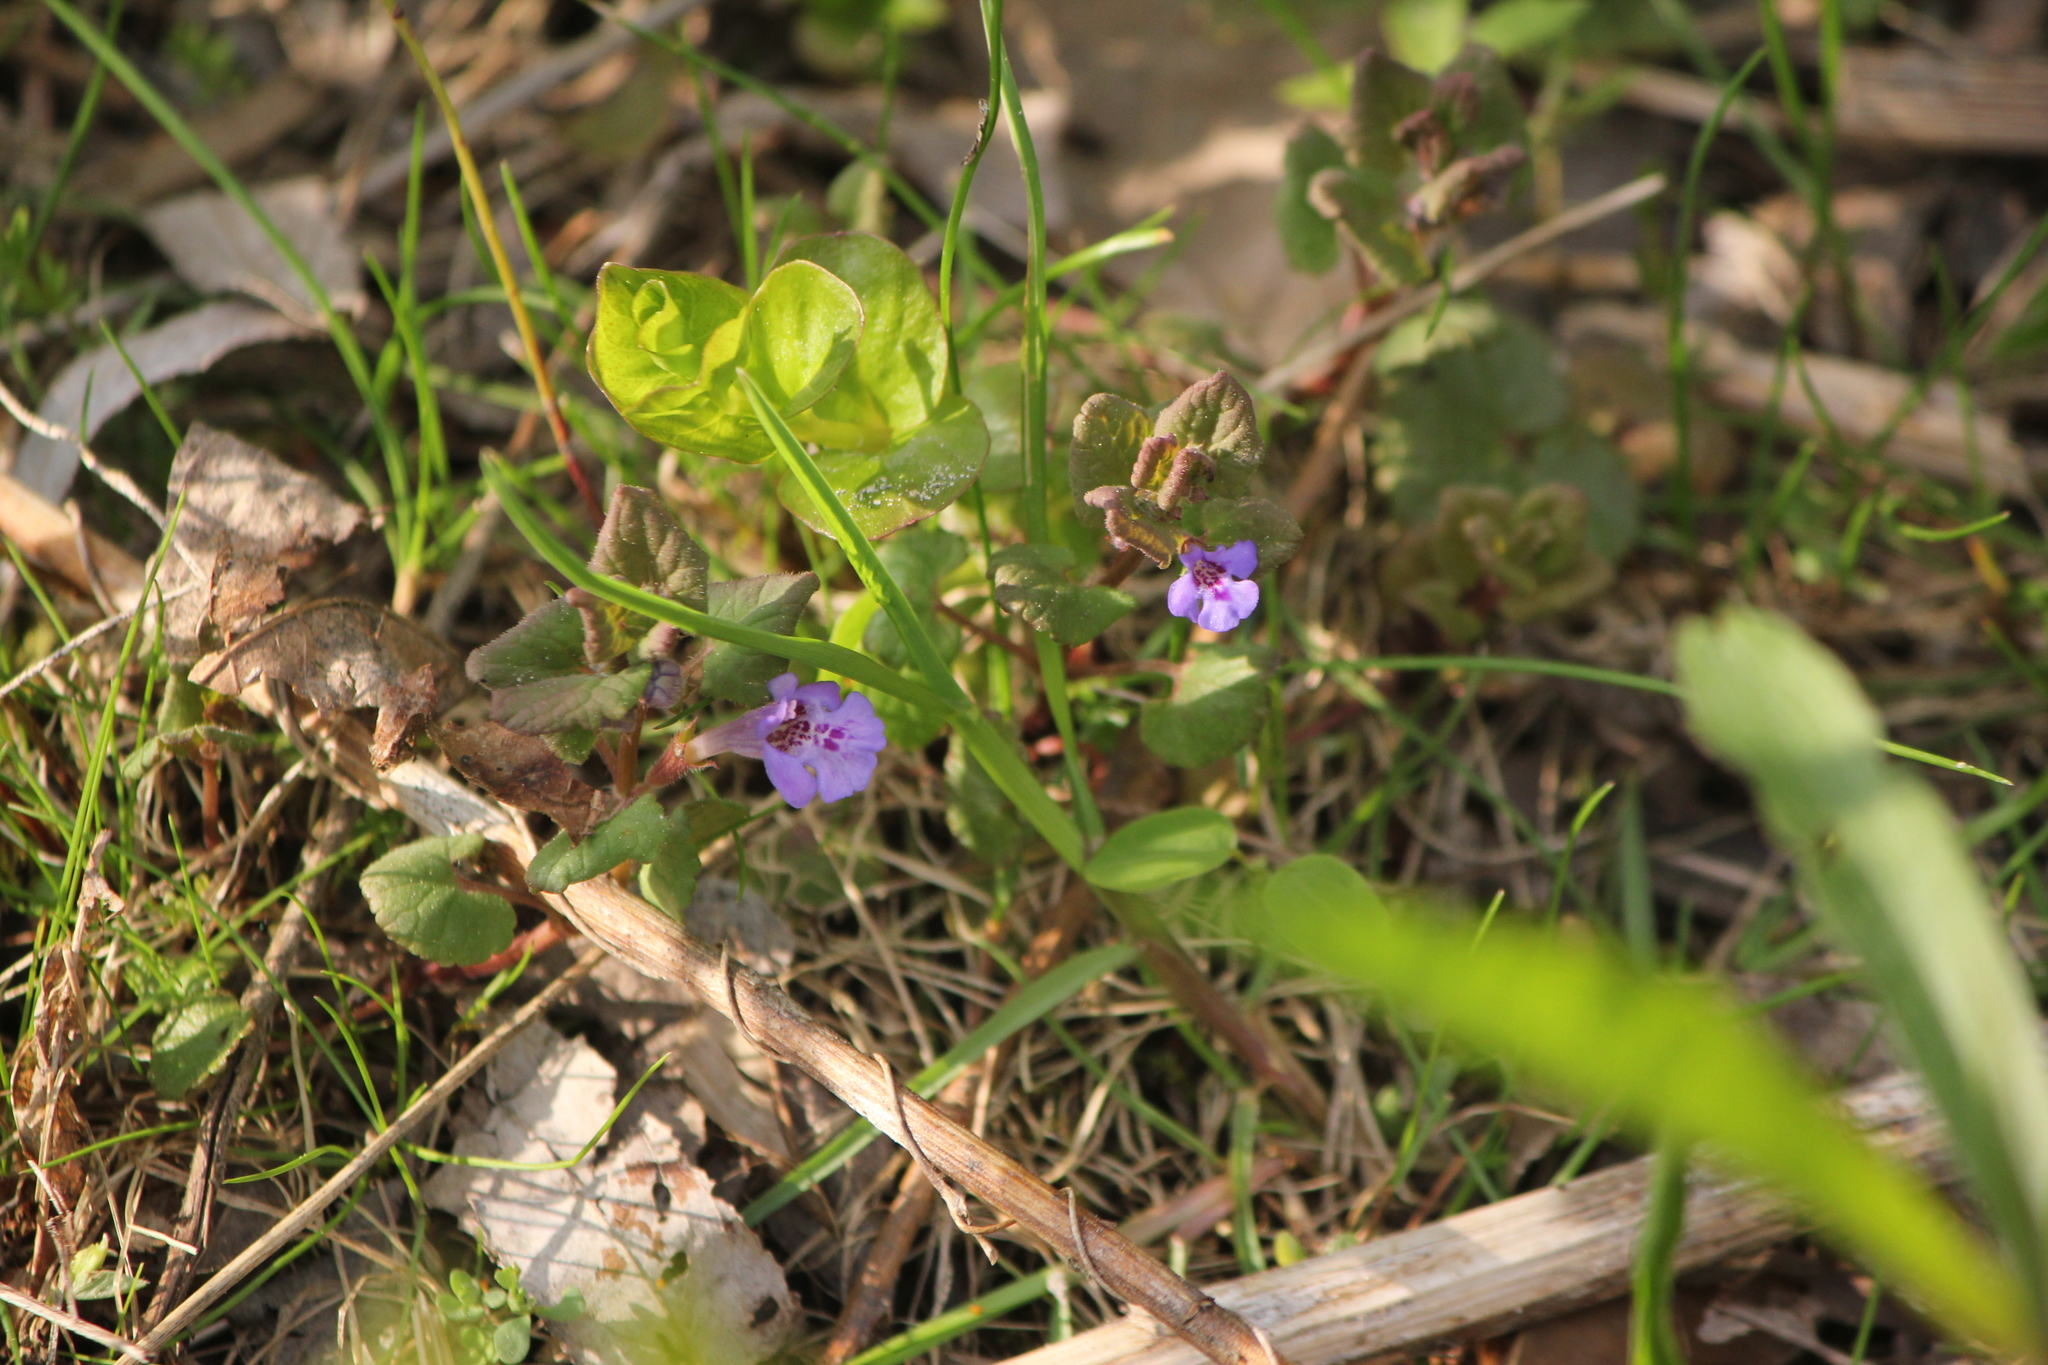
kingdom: Plantae
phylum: Tracheophyta
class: Magnoliopsida
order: Lamiales
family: Lamiaceae
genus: Glechoma
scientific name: Glechoma hederacea
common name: Ground ivy
